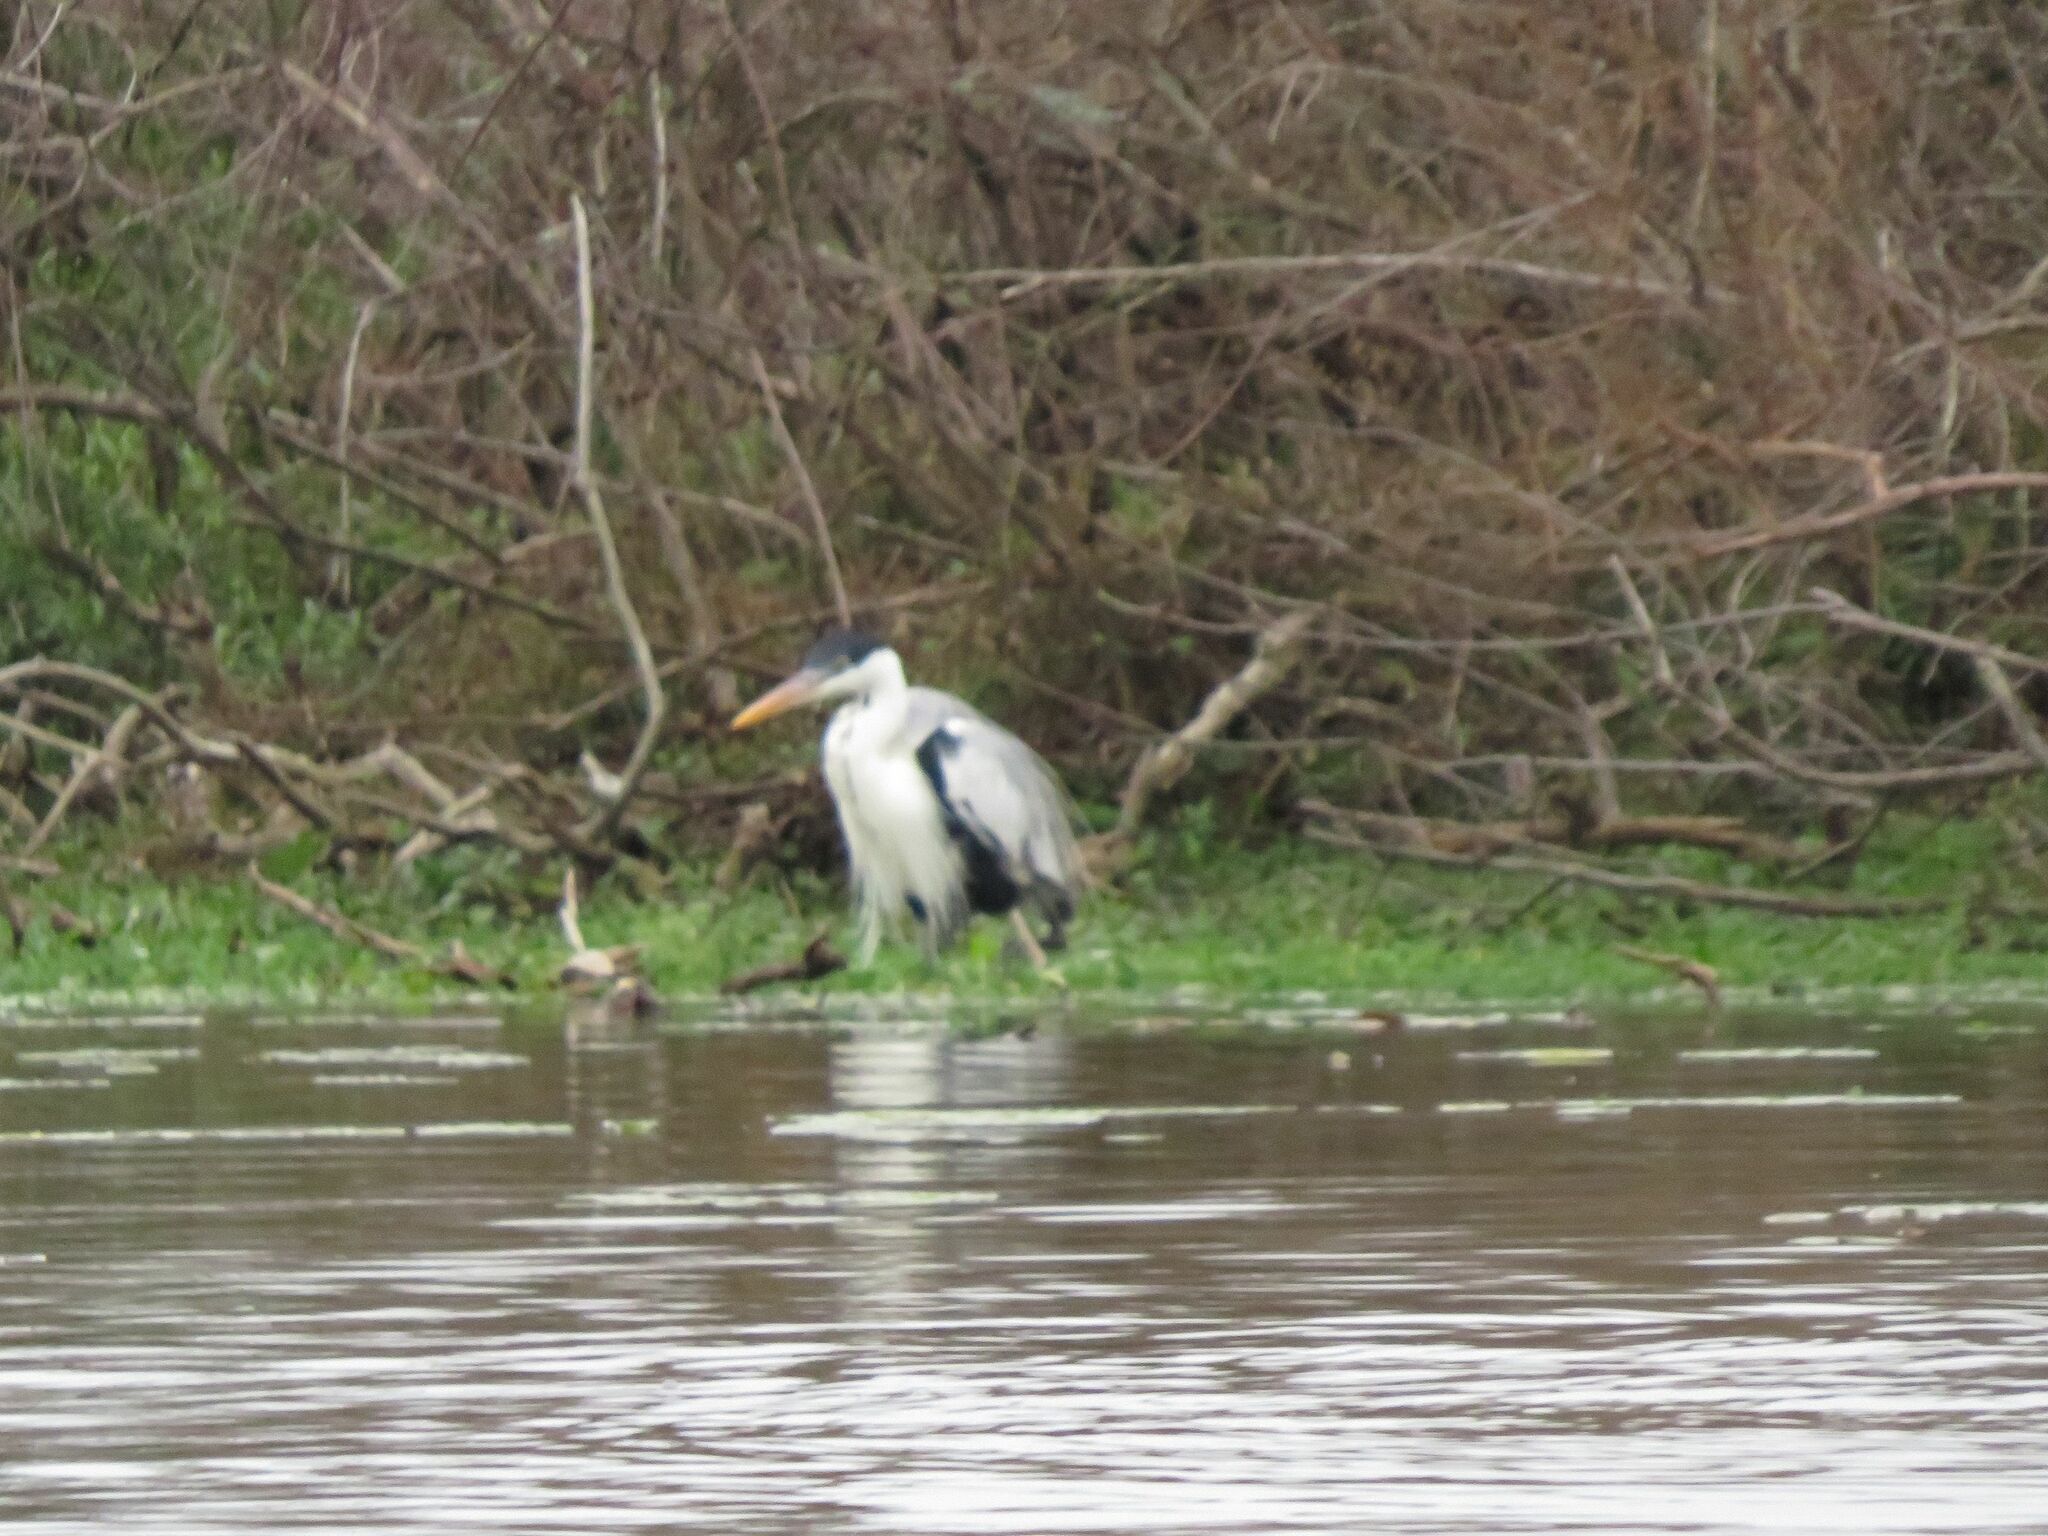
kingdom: Animalia
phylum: Chordata
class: Aves
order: Pelecaniformes
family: Ardeidae
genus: Ardea
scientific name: Ardea cocoi
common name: Cocoi heron
